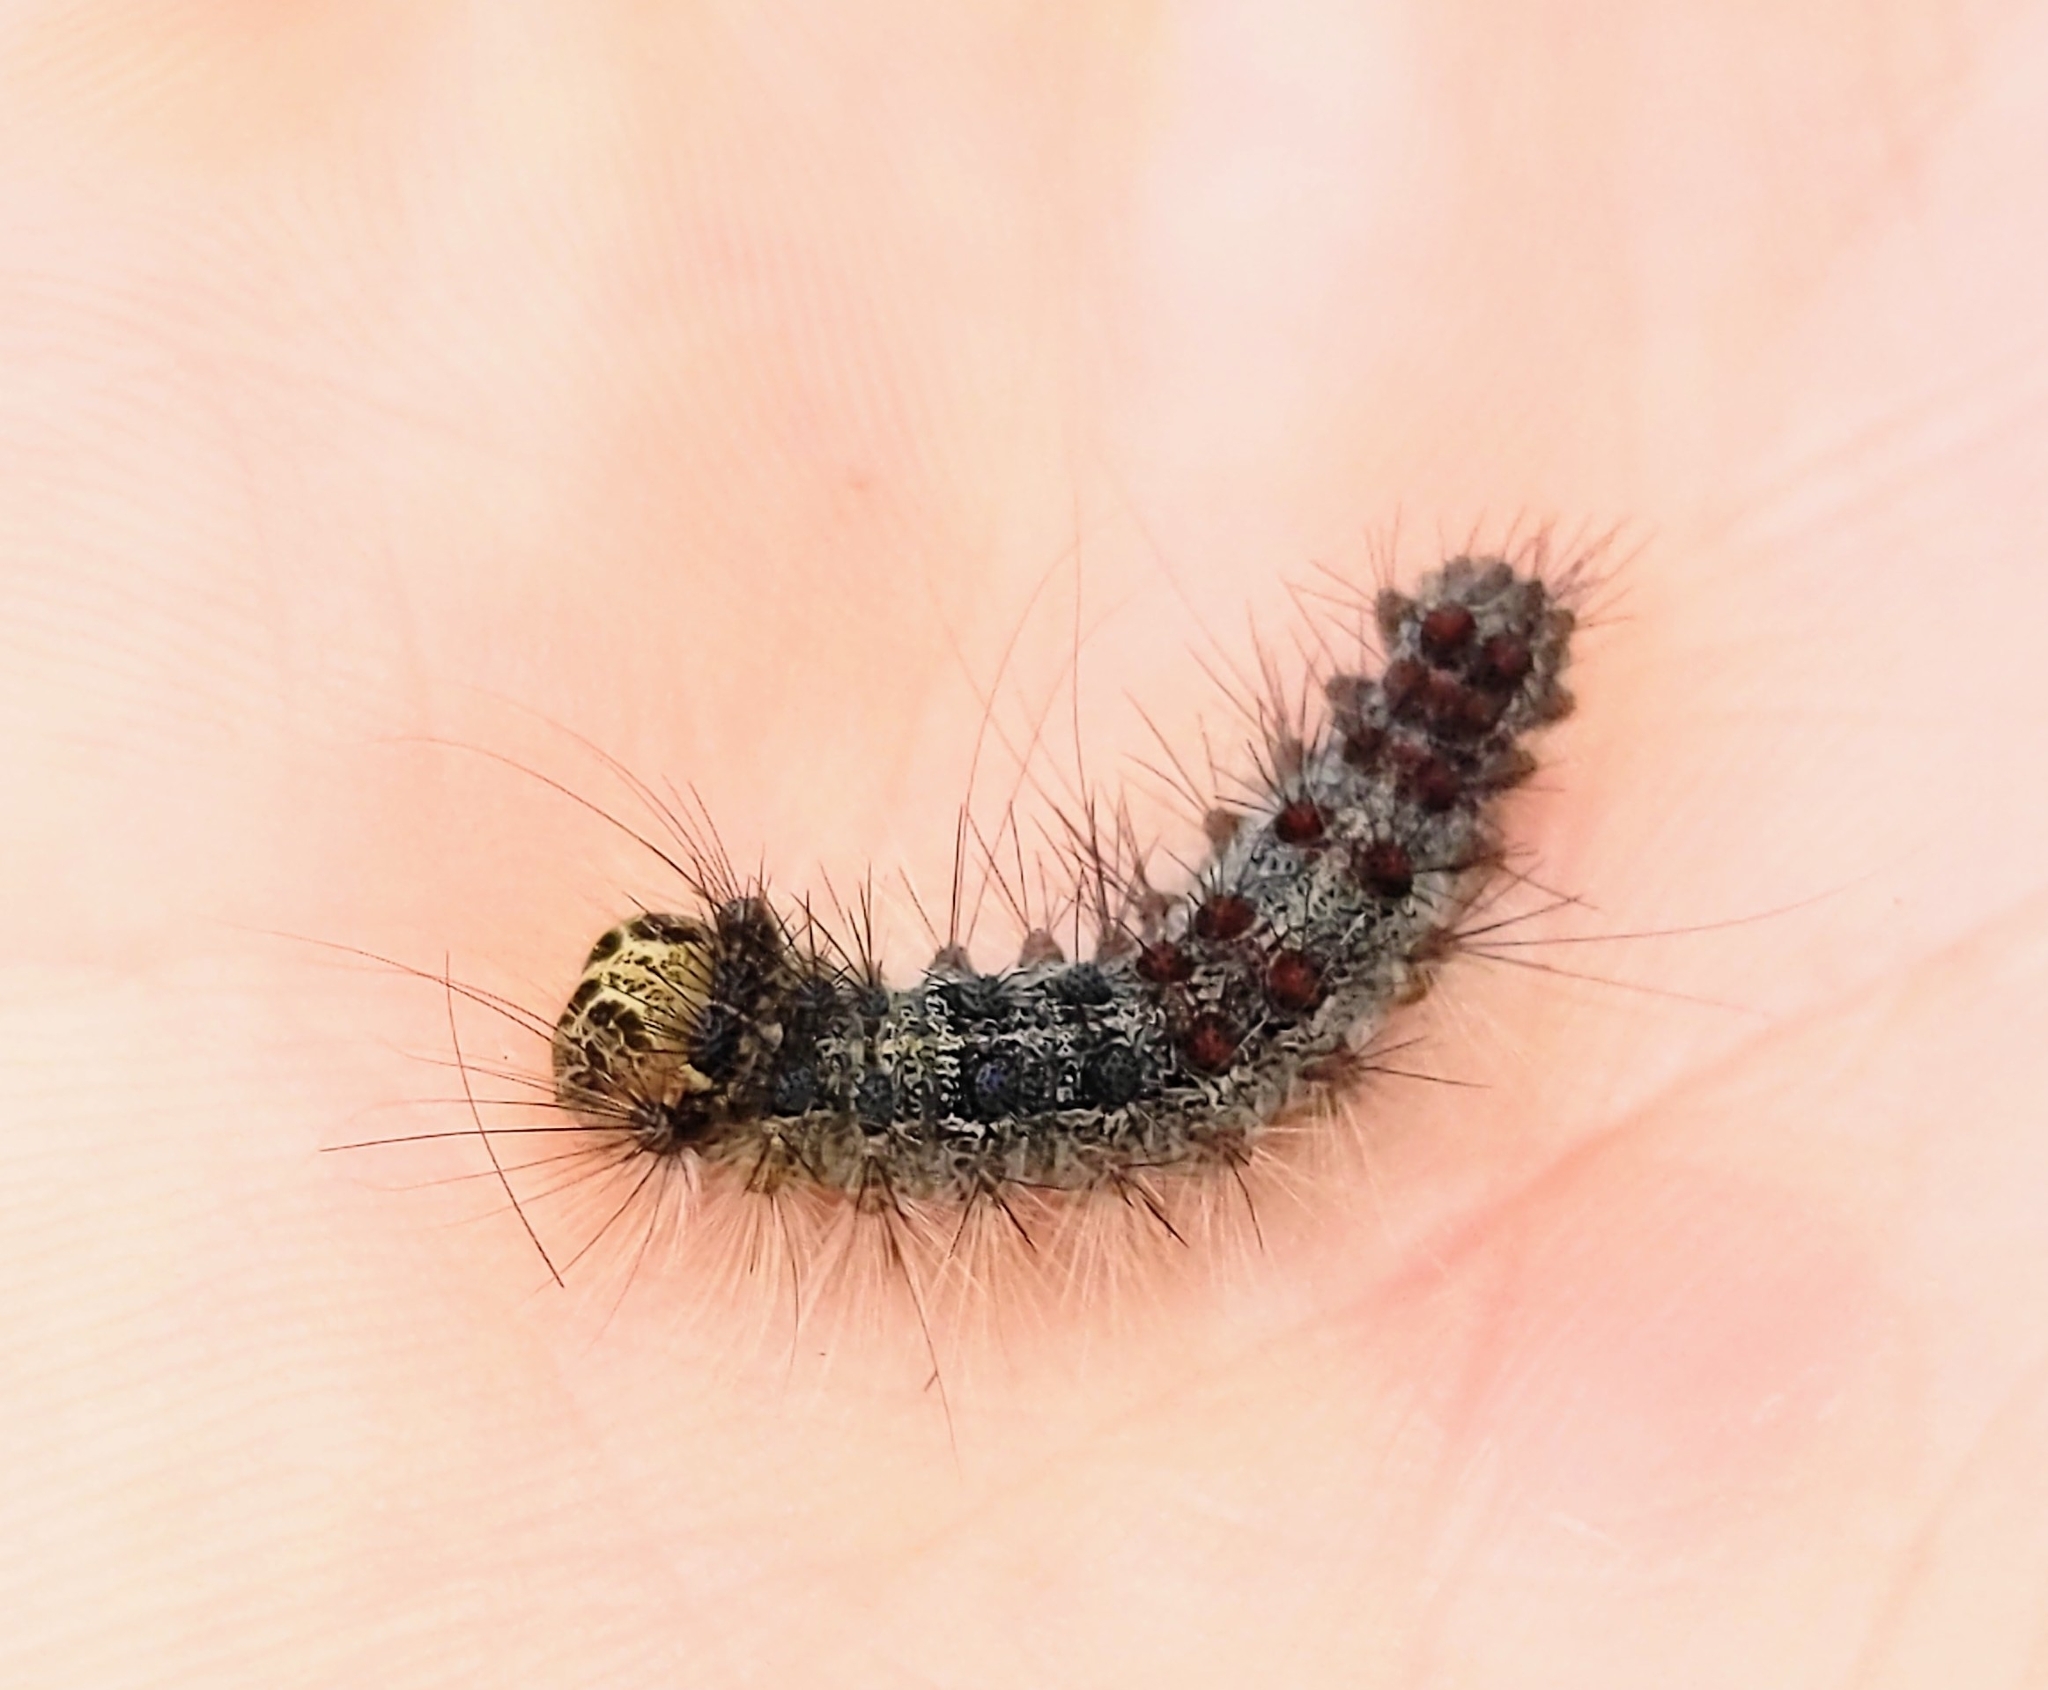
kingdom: Animalia
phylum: Arthropoda
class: Insecta
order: Lepidoptera
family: Erebidae
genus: Lymantria
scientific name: Lymantria dispar
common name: Gypsy moth
